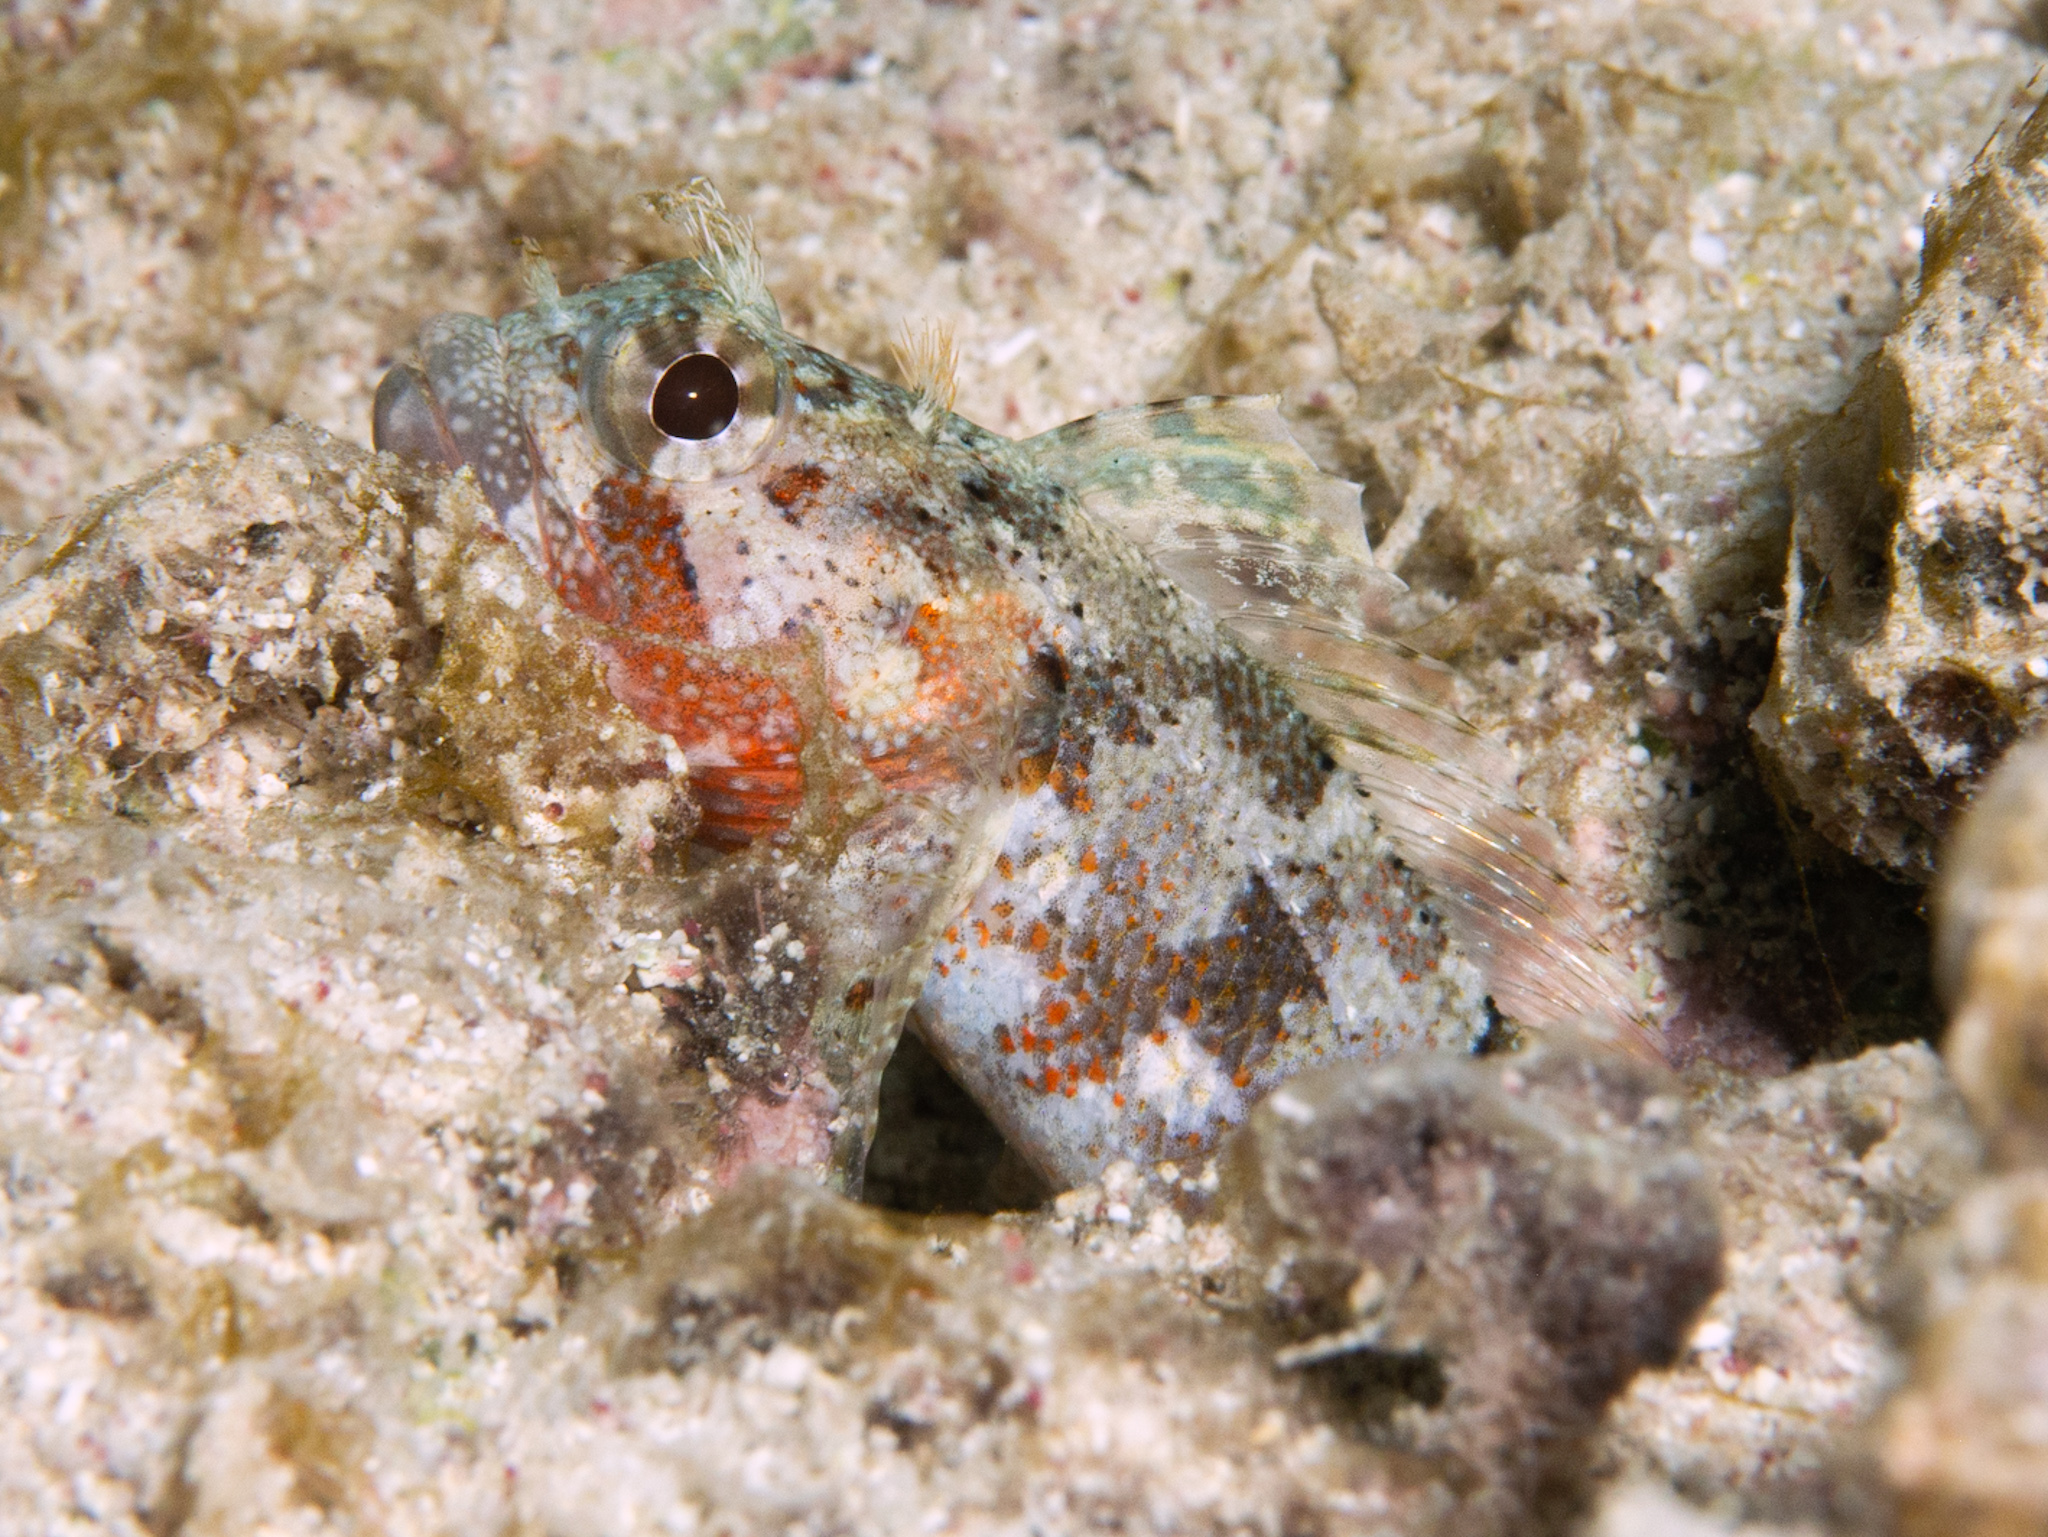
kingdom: Animalia
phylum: Chordata
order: Perciformes
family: Labrisomidae
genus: Gobioclinus
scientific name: Gobioclinus bucciferus
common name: Puffcheek blenny
